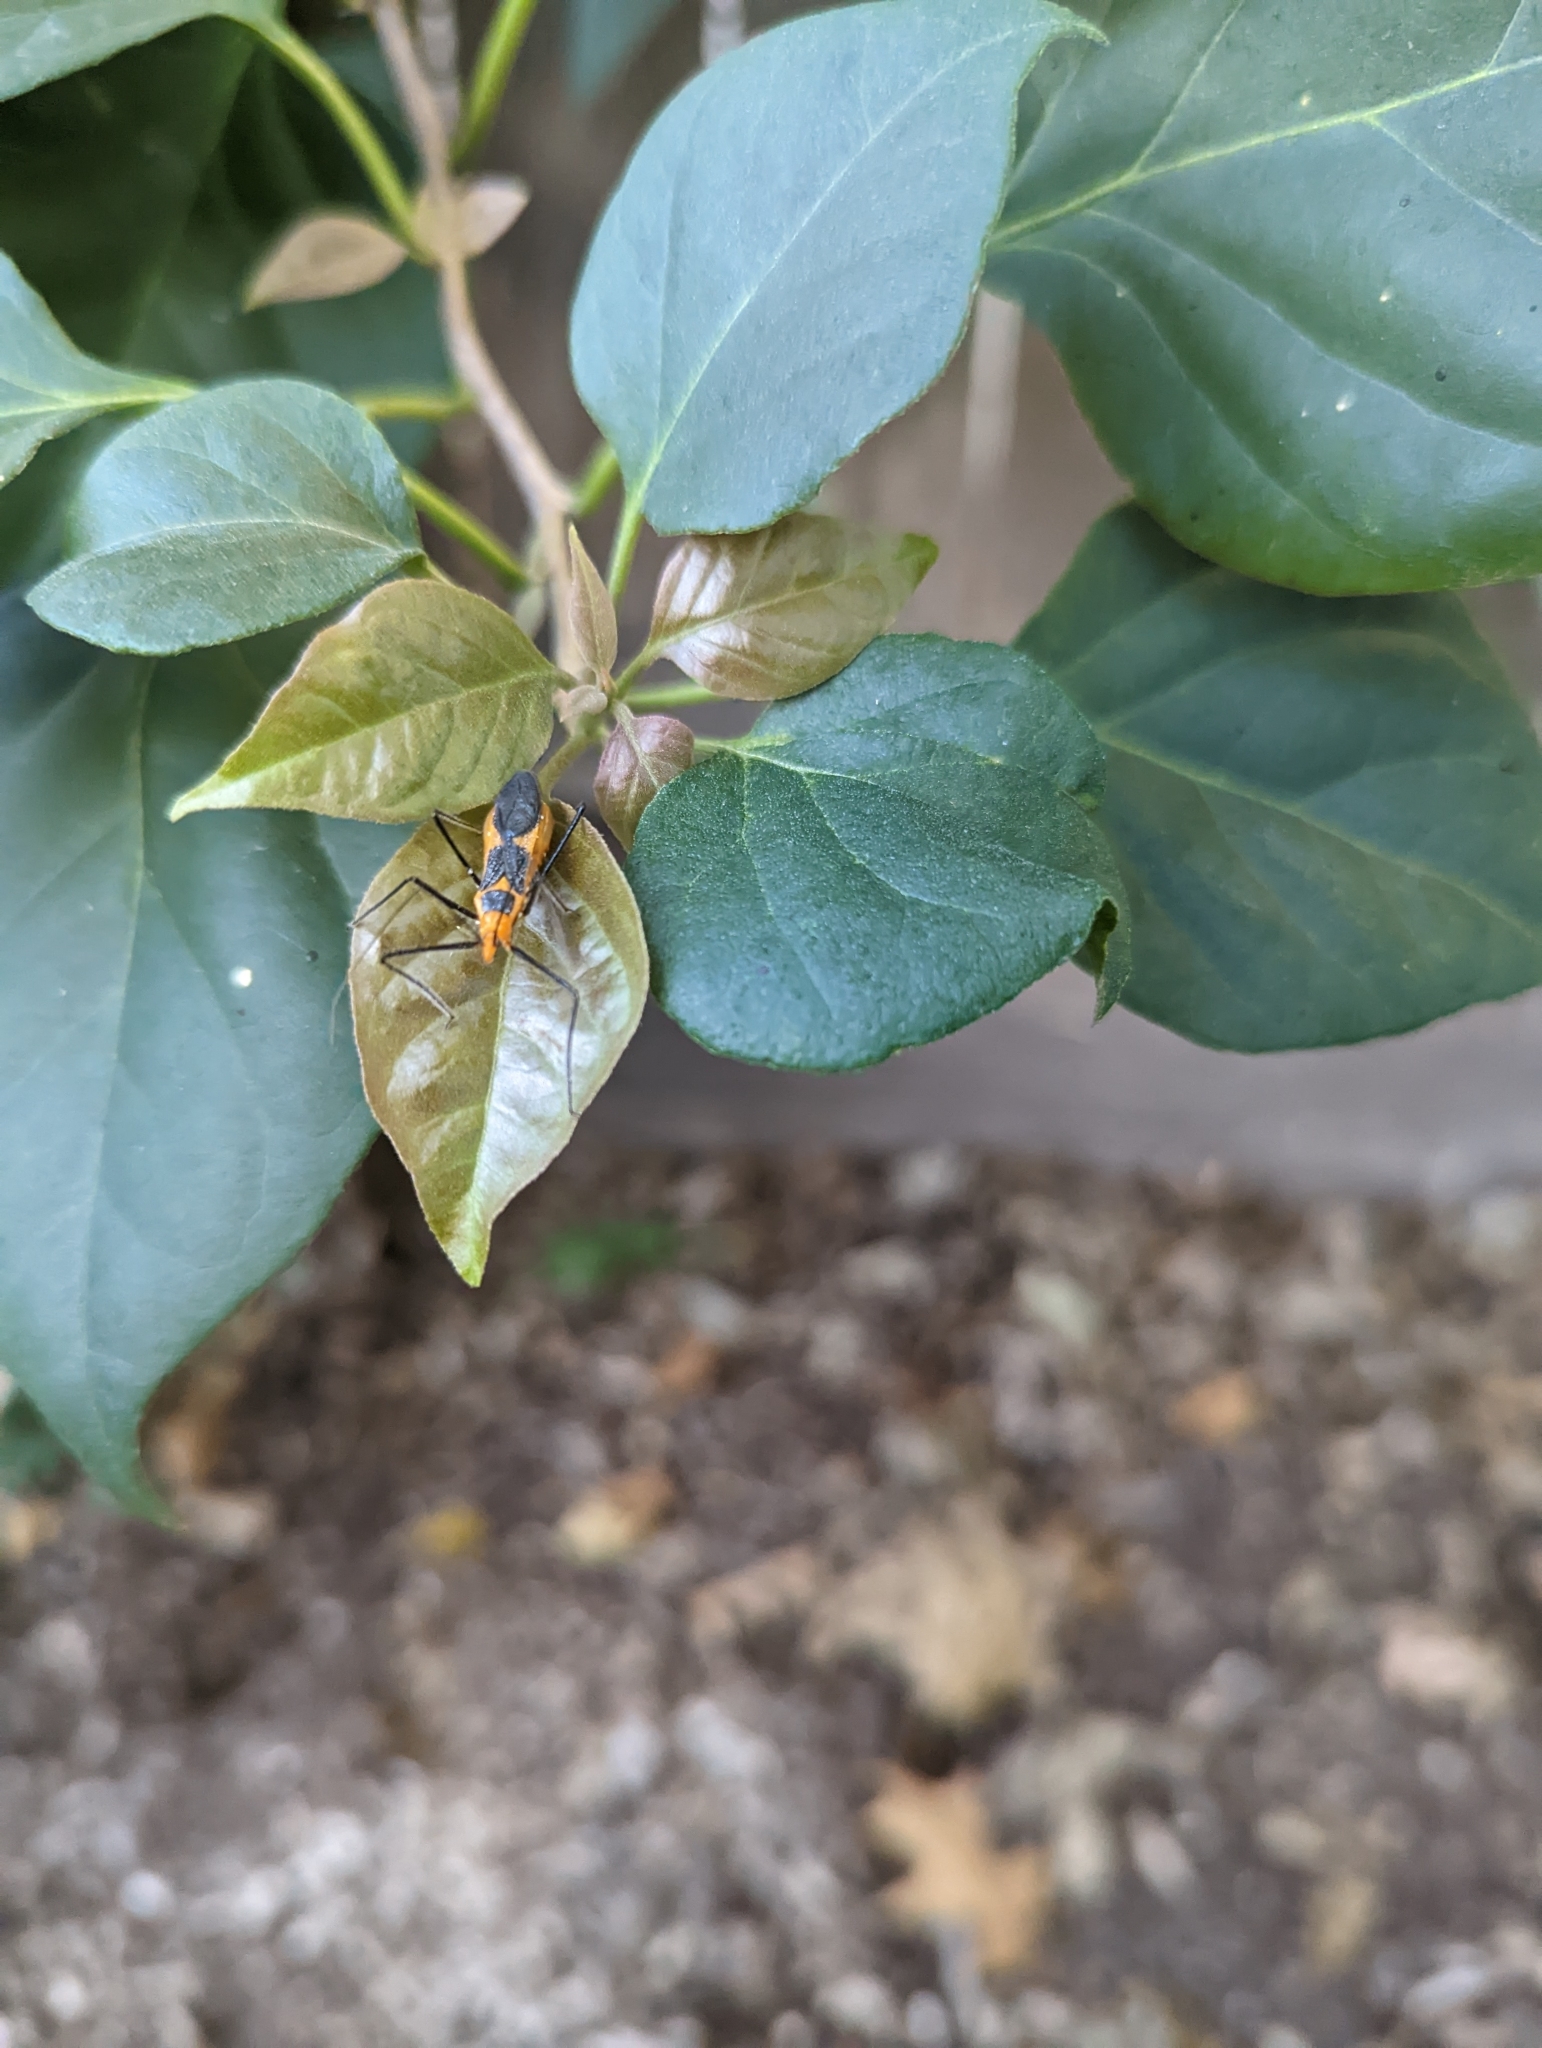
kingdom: Animalia
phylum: Arthropoda
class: Insecta
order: Hemiptera
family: Reduviidae
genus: Zelus
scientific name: Zelus longipes
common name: Milkweed assassin bug
